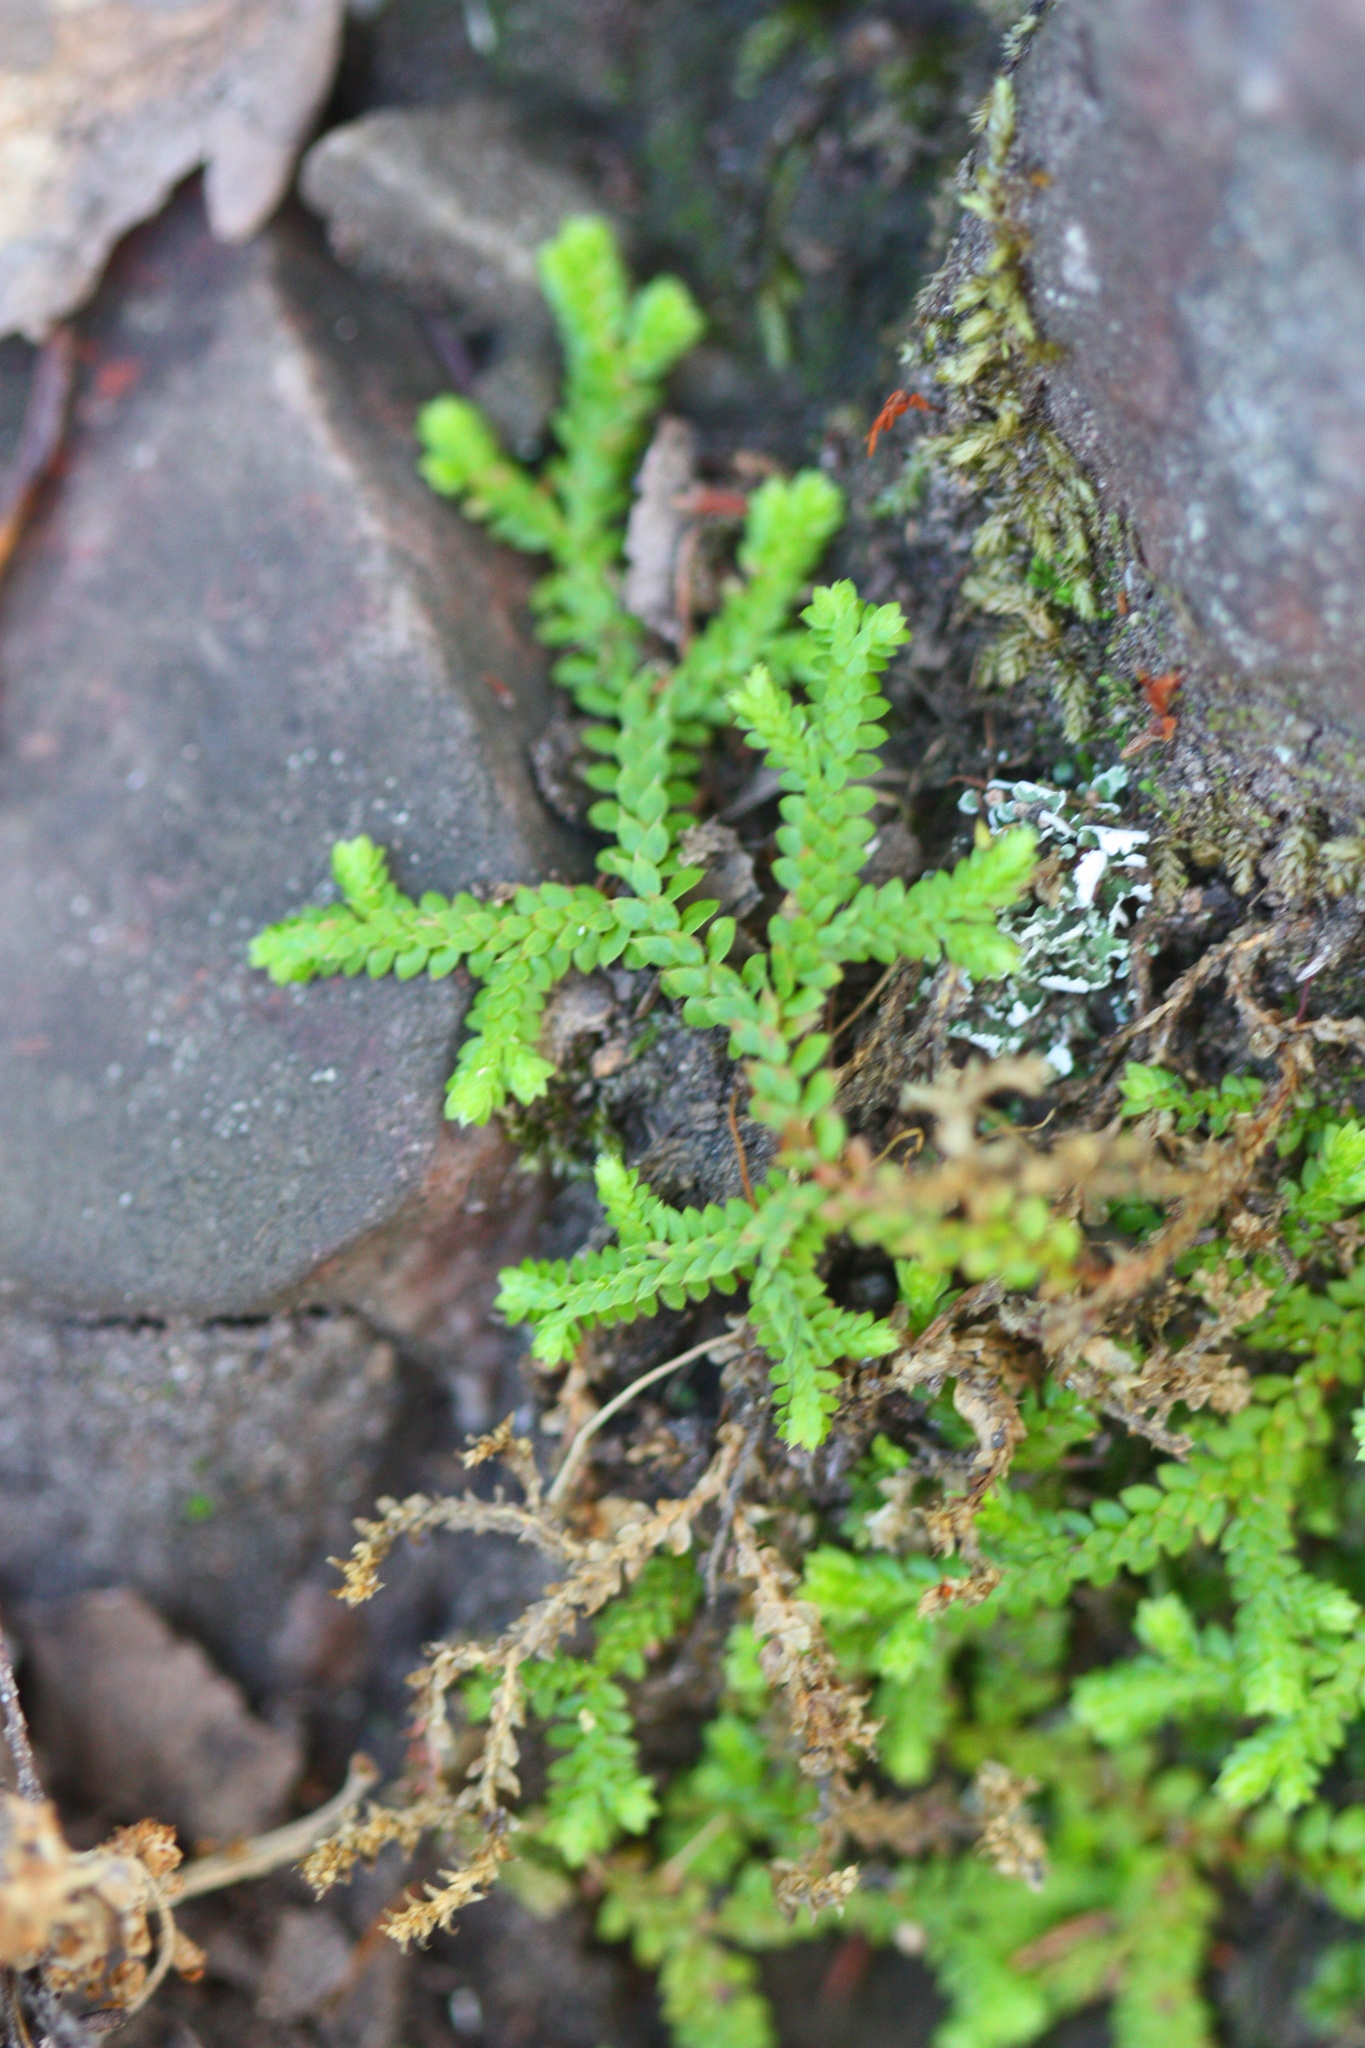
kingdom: Plantae
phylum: Tracheophyta
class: Lycopodiopsida
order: Selaginellales
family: Selaginellaceae
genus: Selaginella
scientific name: Selaginella denticulata
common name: Toothed-leaved clubmoss
